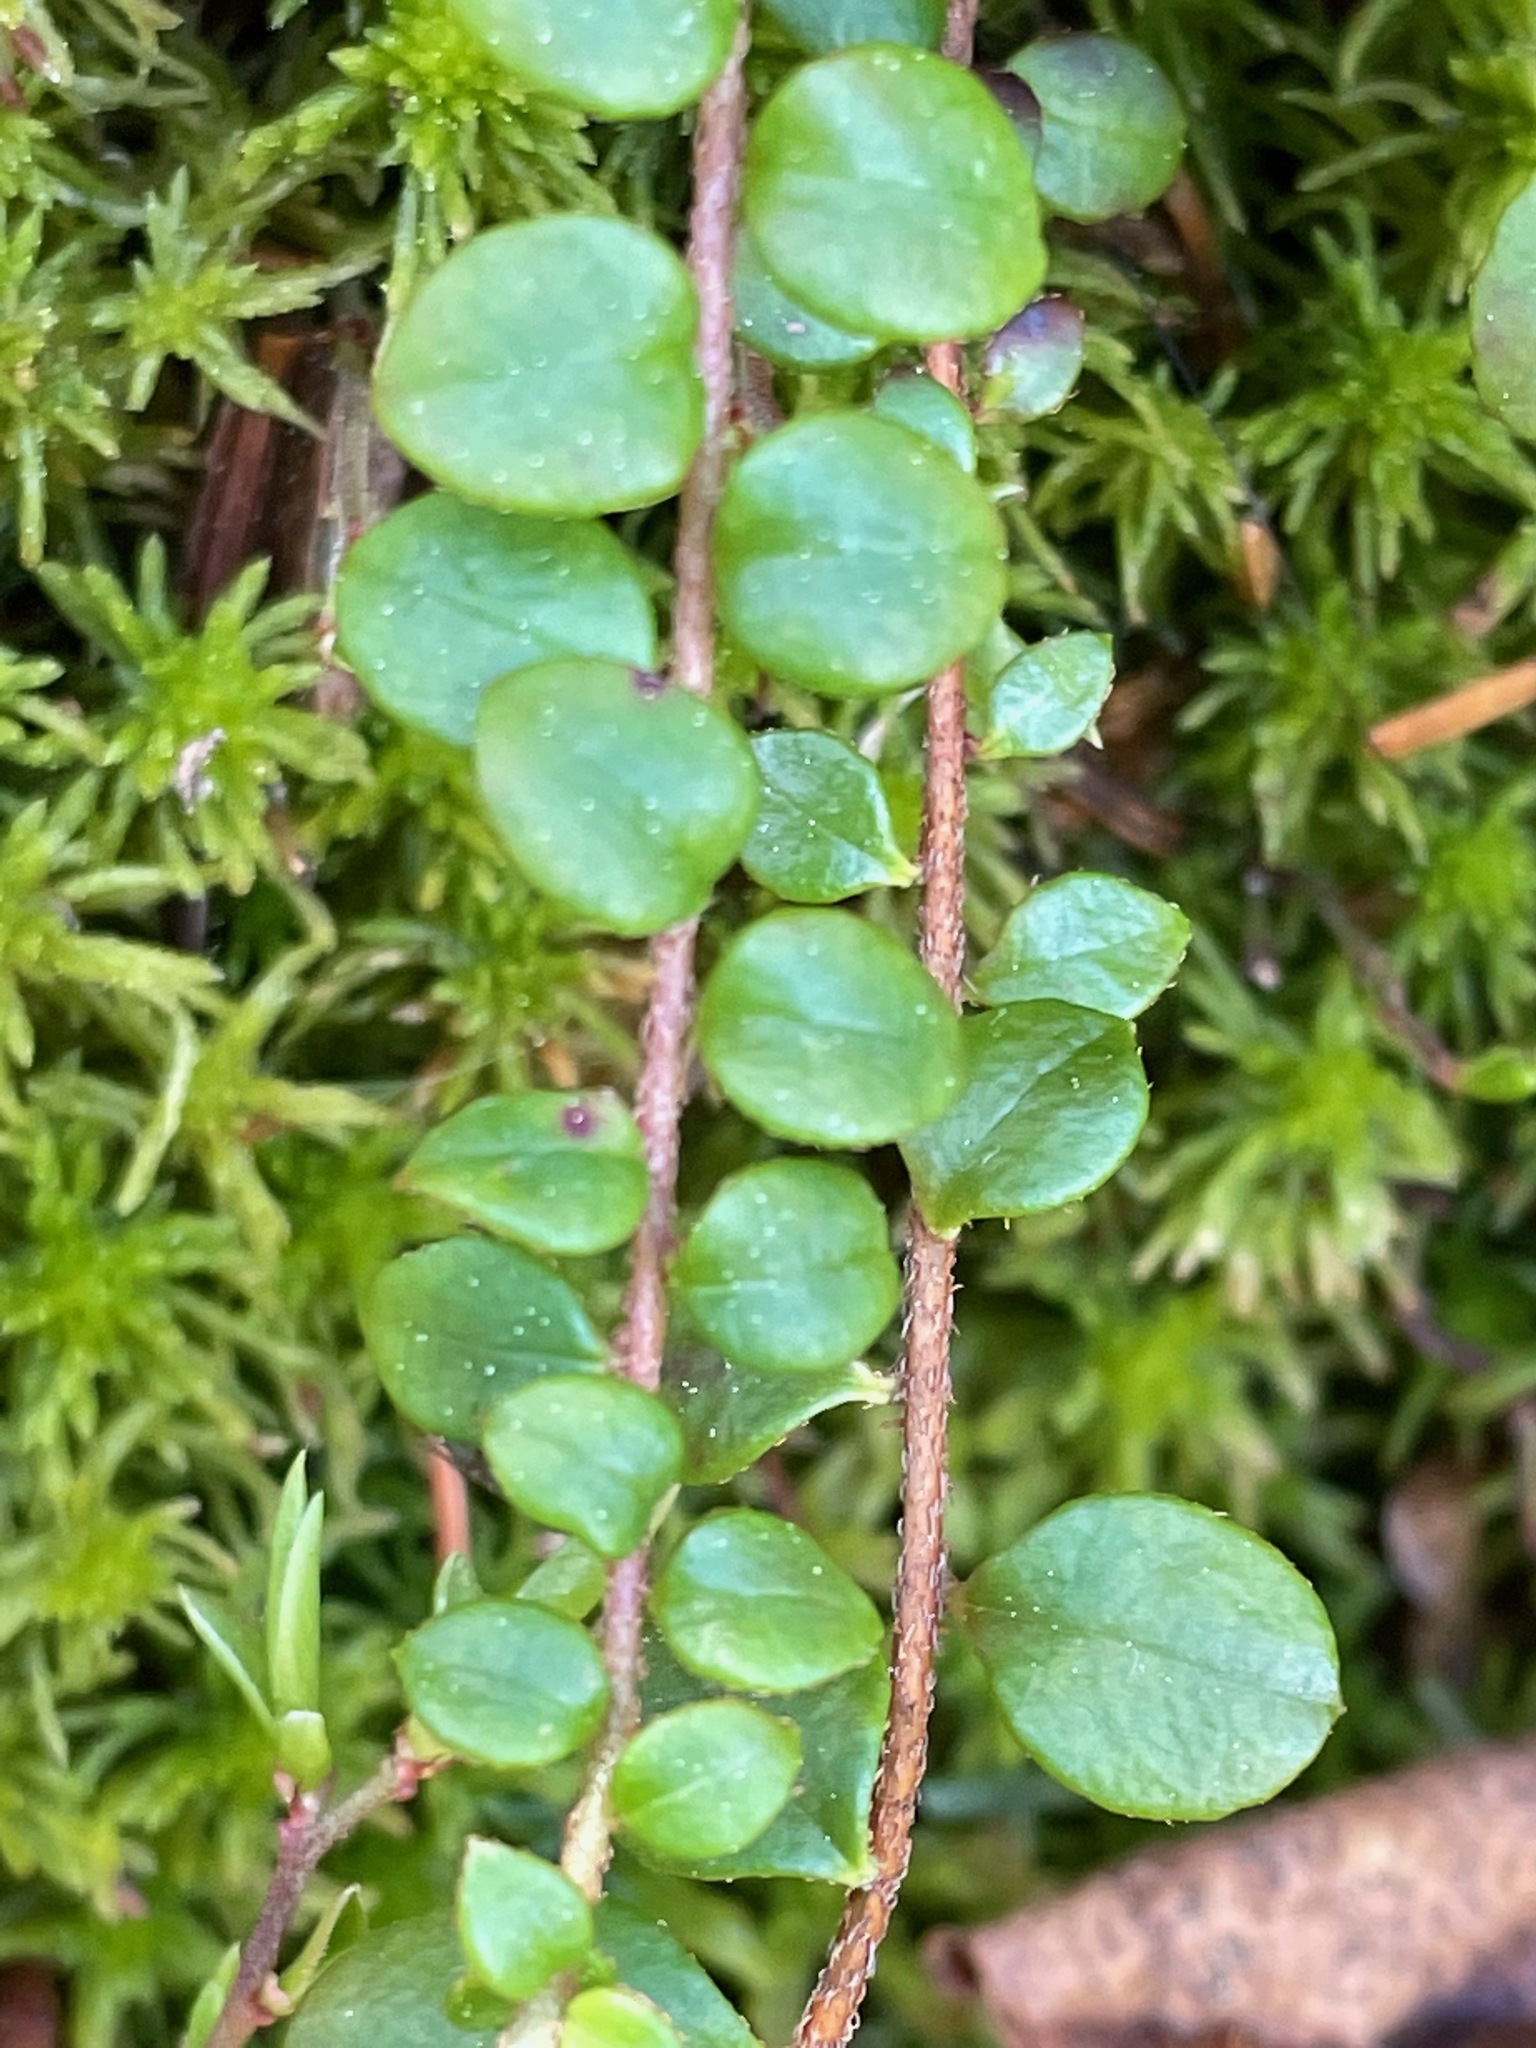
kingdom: Plantae
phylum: Tracheophyta
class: Magnoliopsida
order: Ericales
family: Ericaceae
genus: Gaultheria
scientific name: Gaultheria hispidula
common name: Cancer wintergreen
